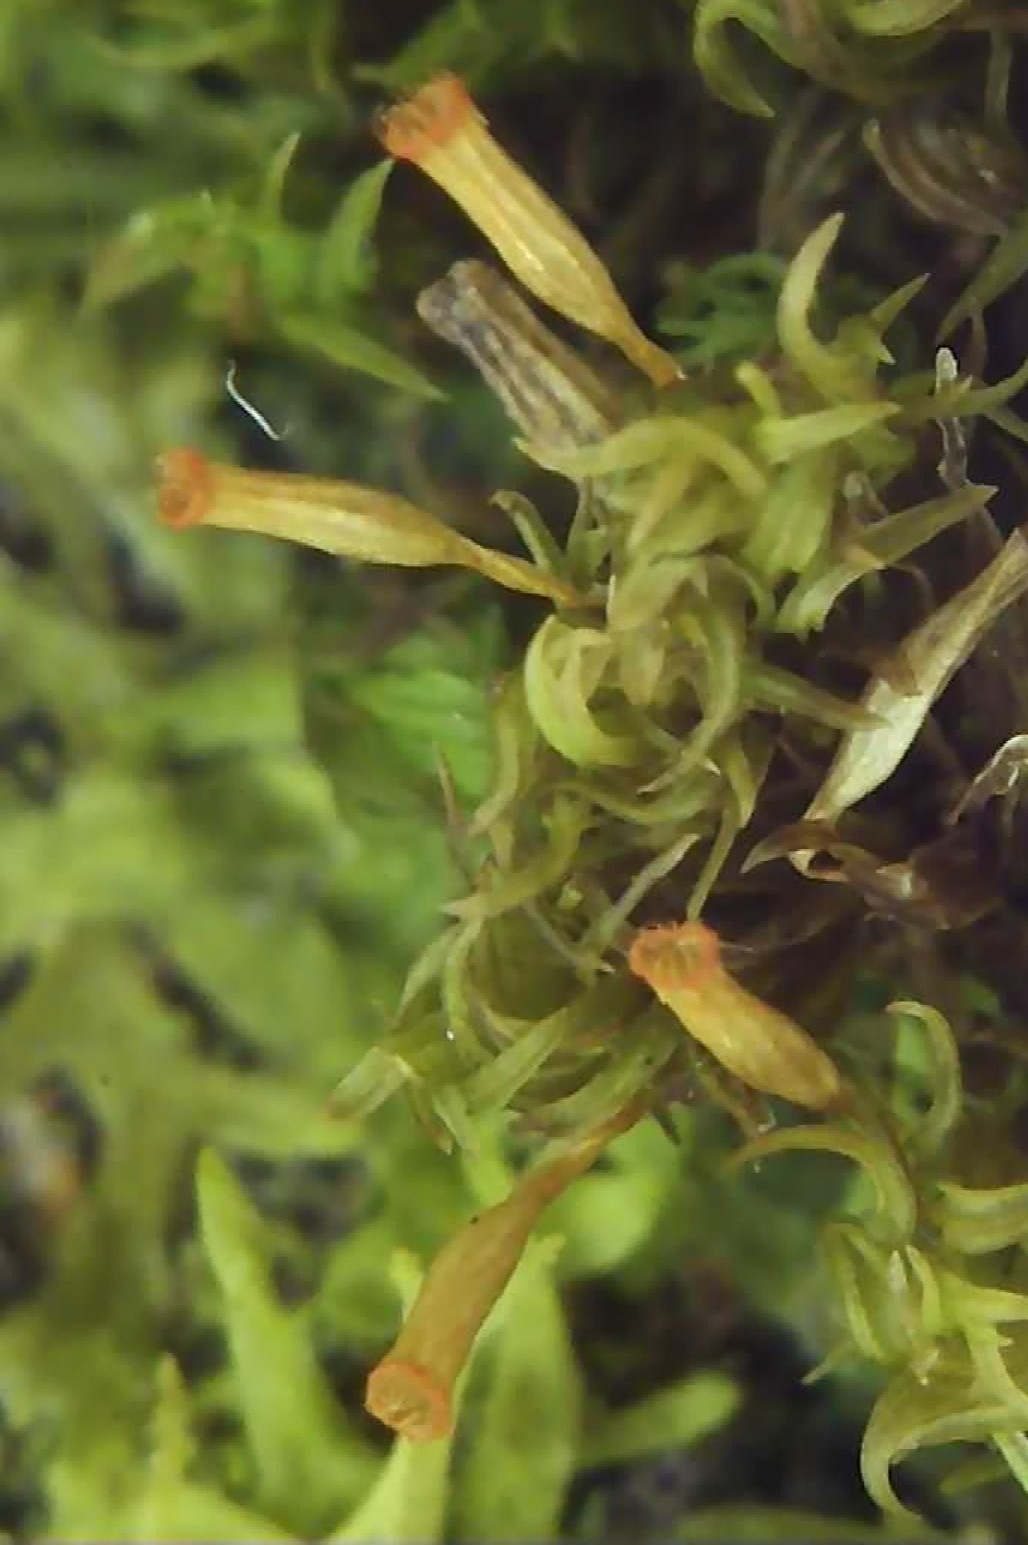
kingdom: Plantae
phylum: Bryophyta
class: Bryopsida
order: Orthotrichales
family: Orthotrichaceae
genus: Orthotrichum
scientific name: Orthotrichum pulchellum
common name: Elegant bristle-moss
